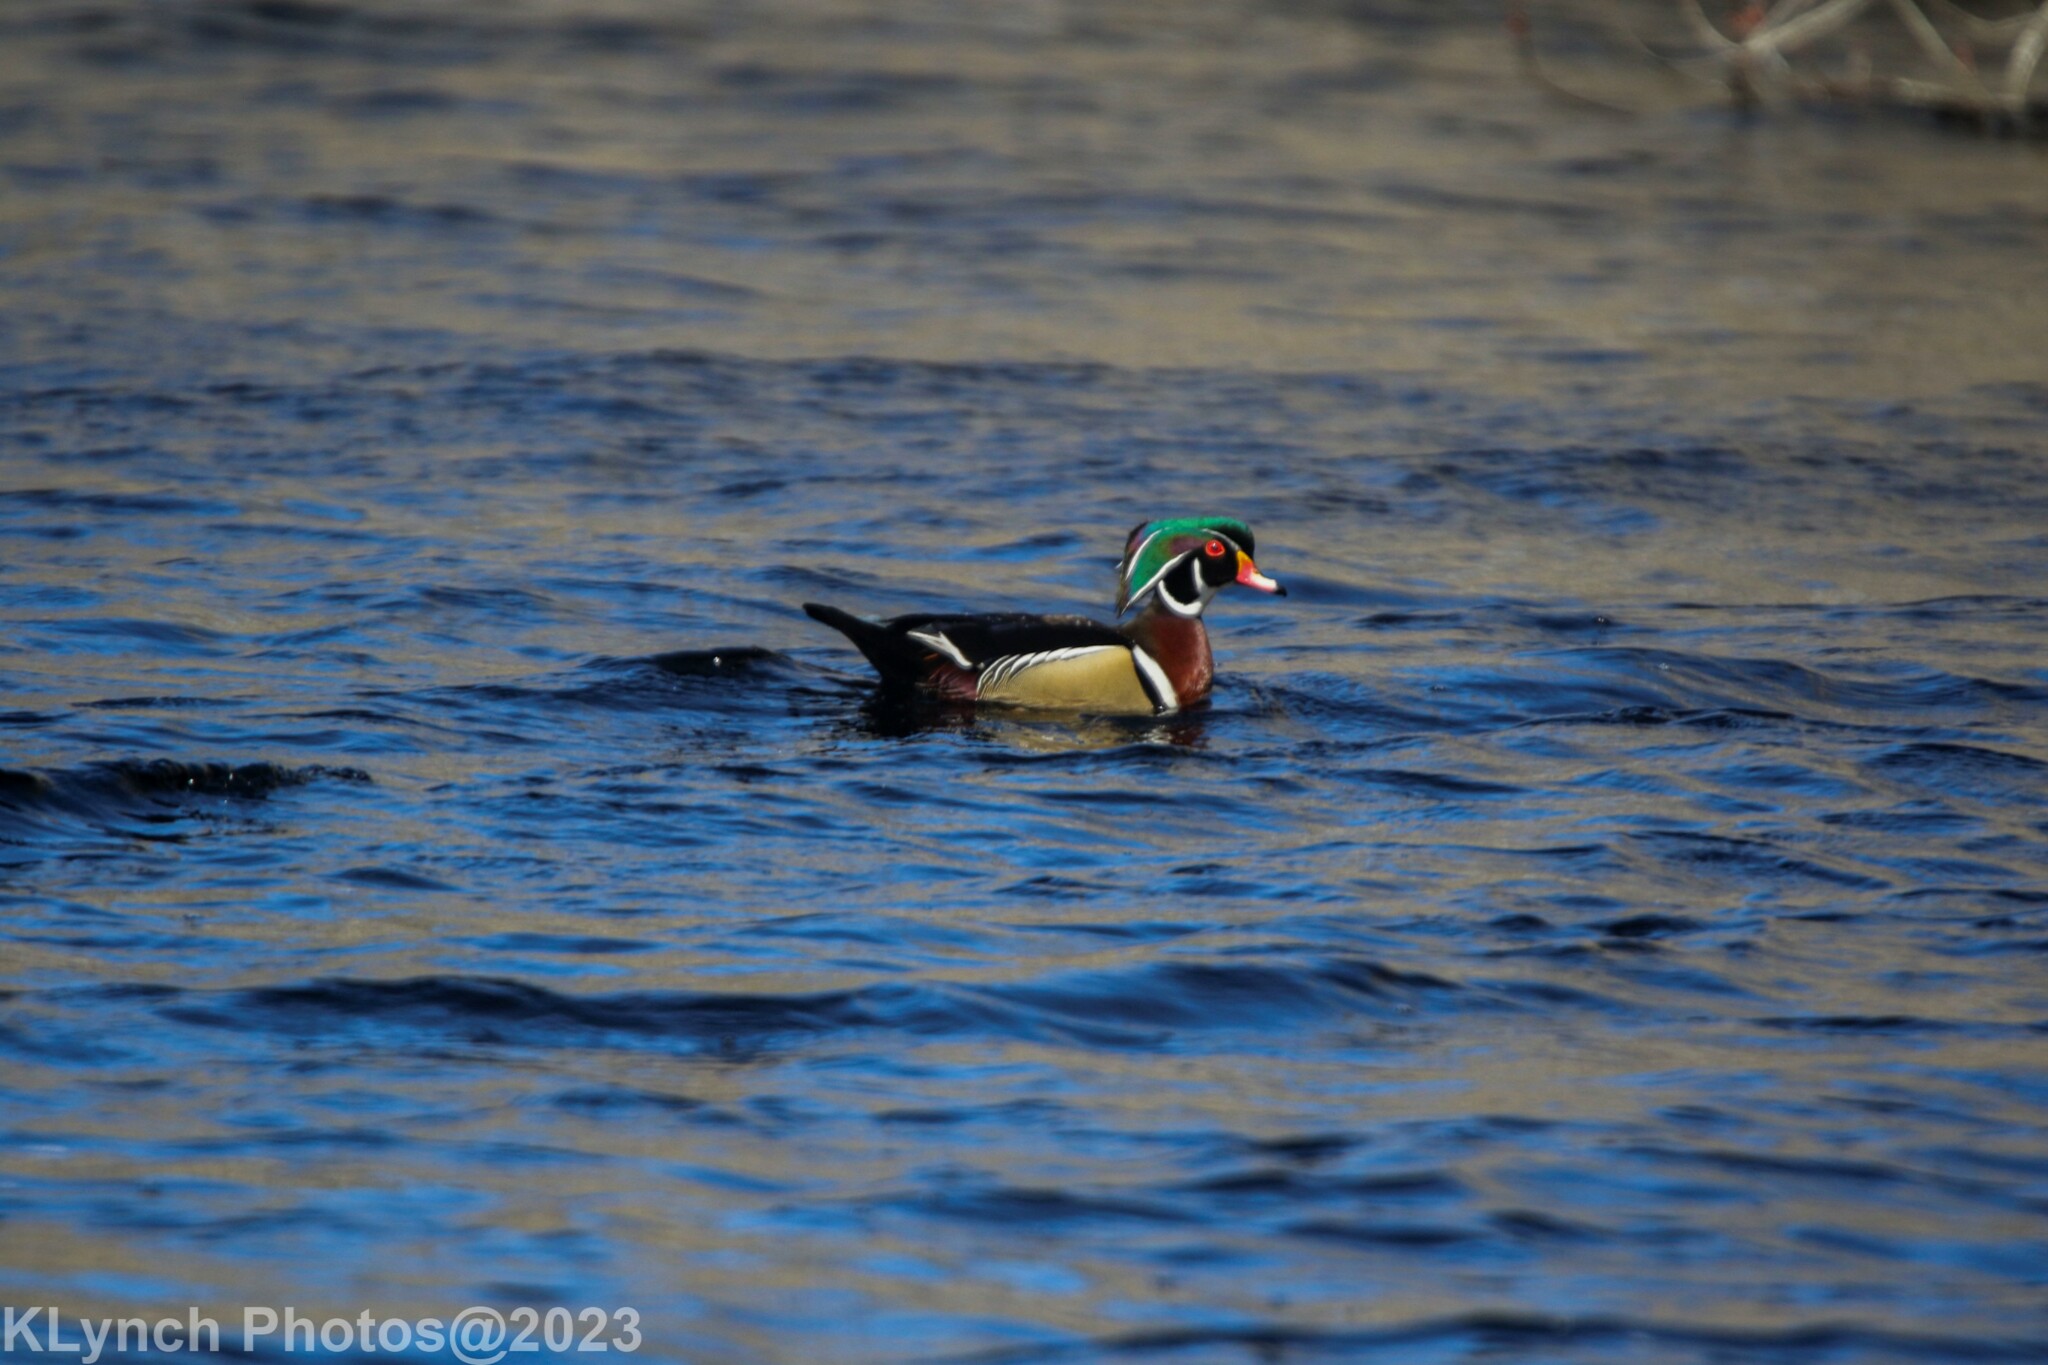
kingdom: Animalia
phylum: Chordata
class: Aves
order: Anseriformes
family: Anatidae
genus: Aix
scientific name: Aix sponsa
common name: Wood duck
